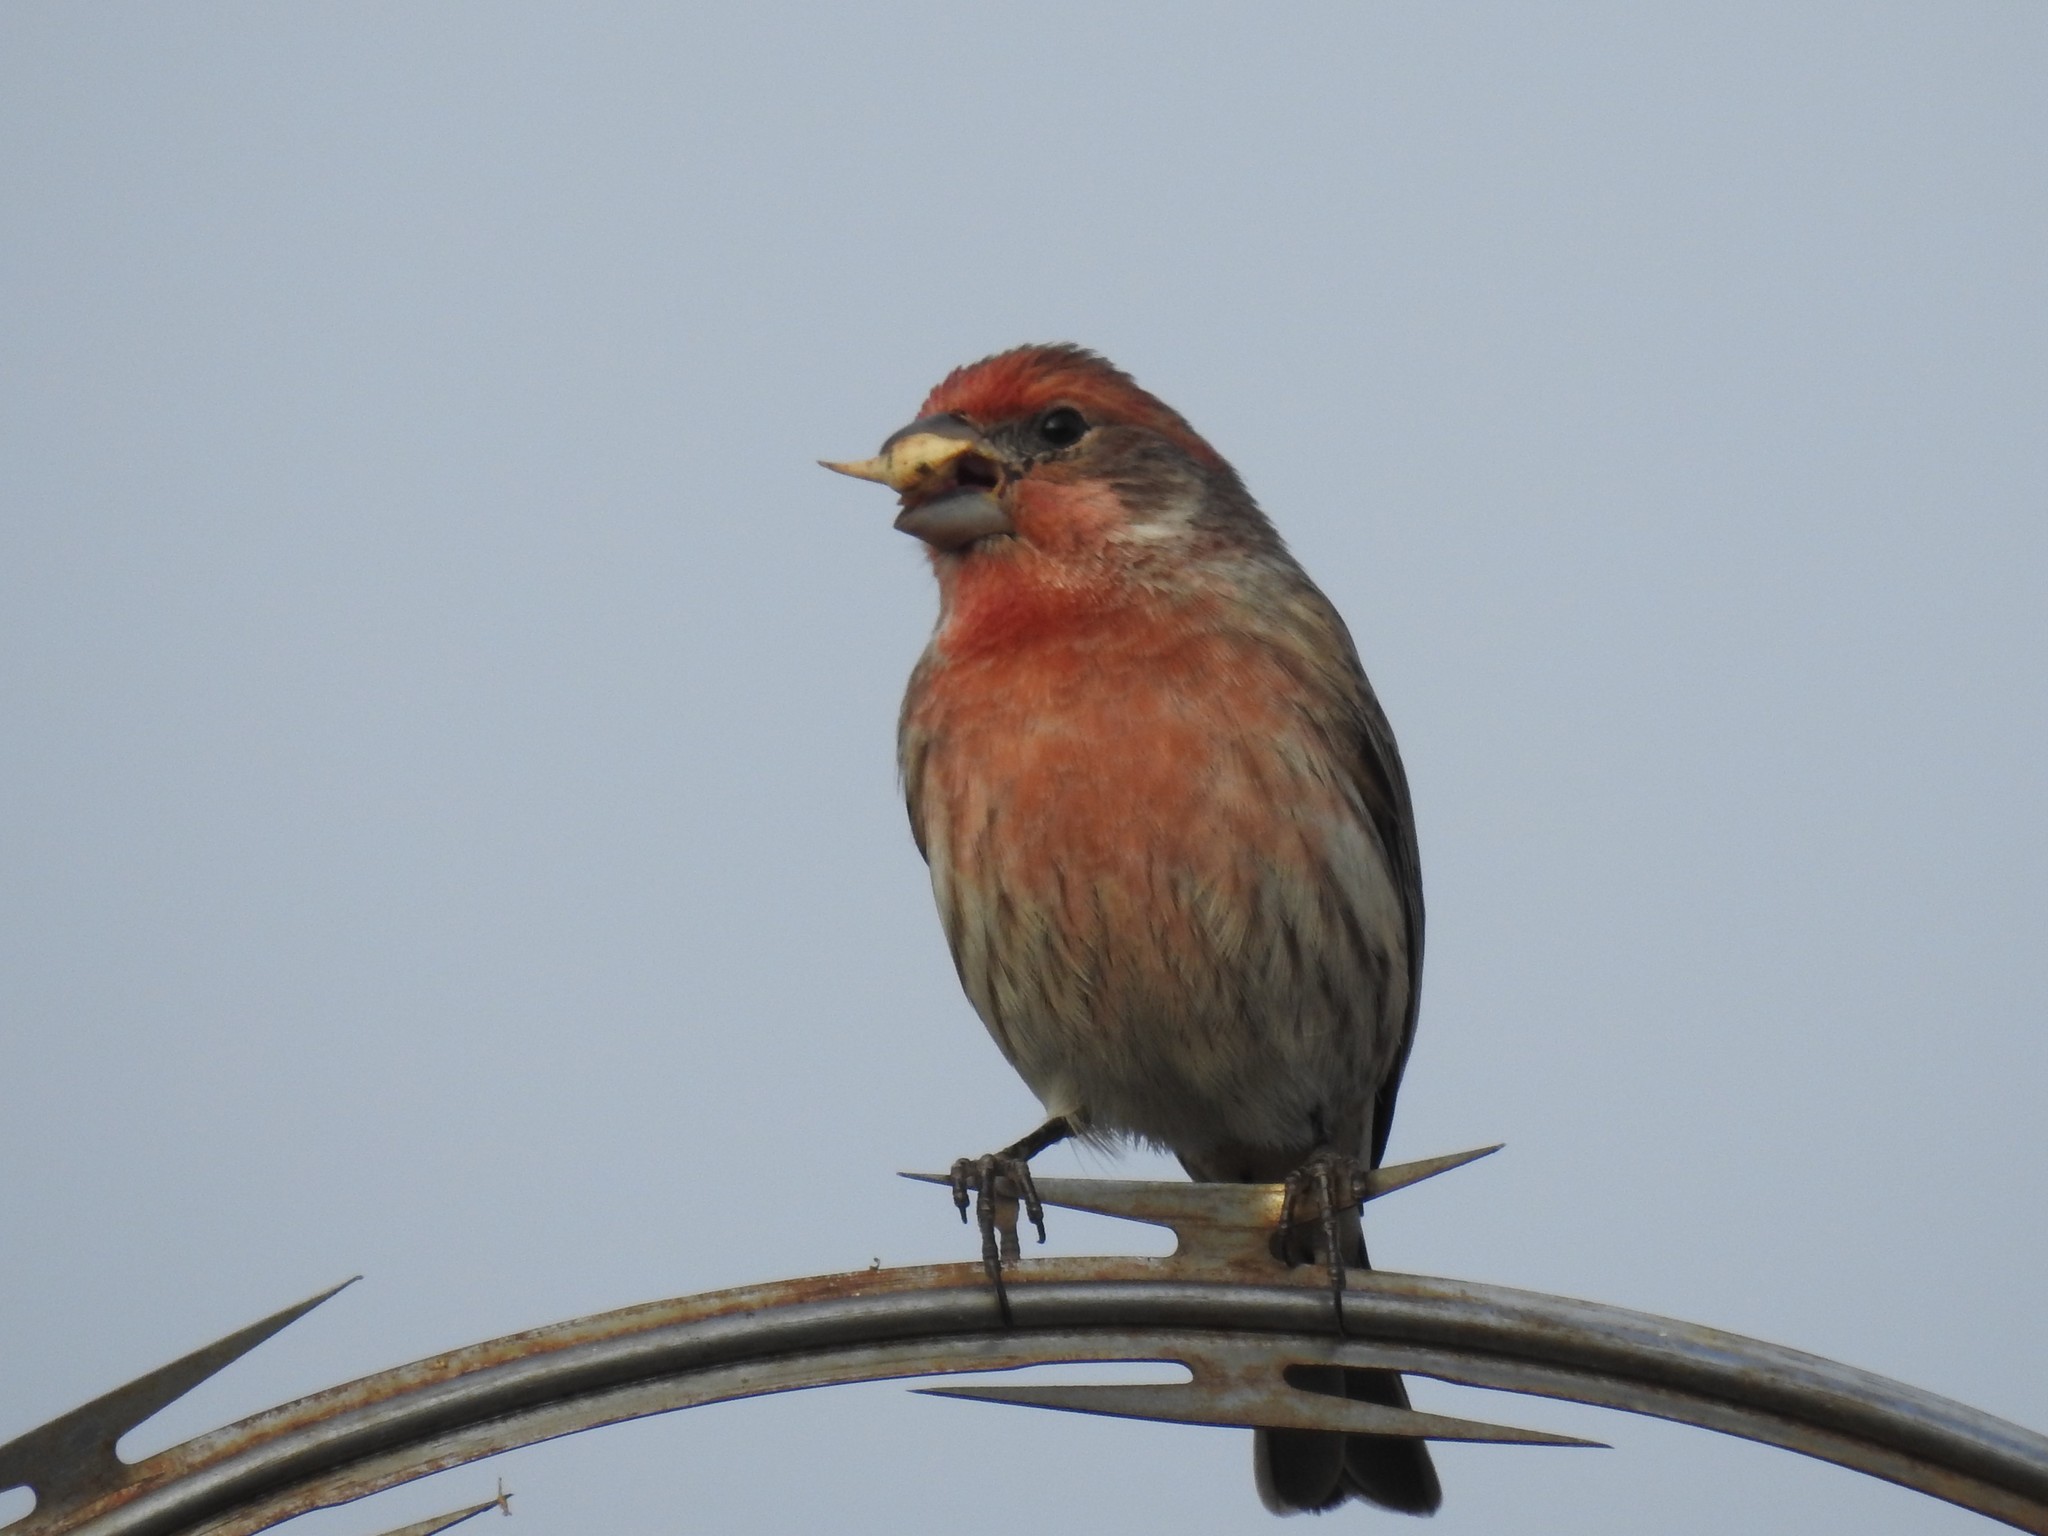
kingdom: Animalia
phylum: Chordata
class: Aves
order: Passeriformes
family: Fringillidae
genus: Haemorhous
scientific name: Haemorhous mexicanus
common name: House finch
